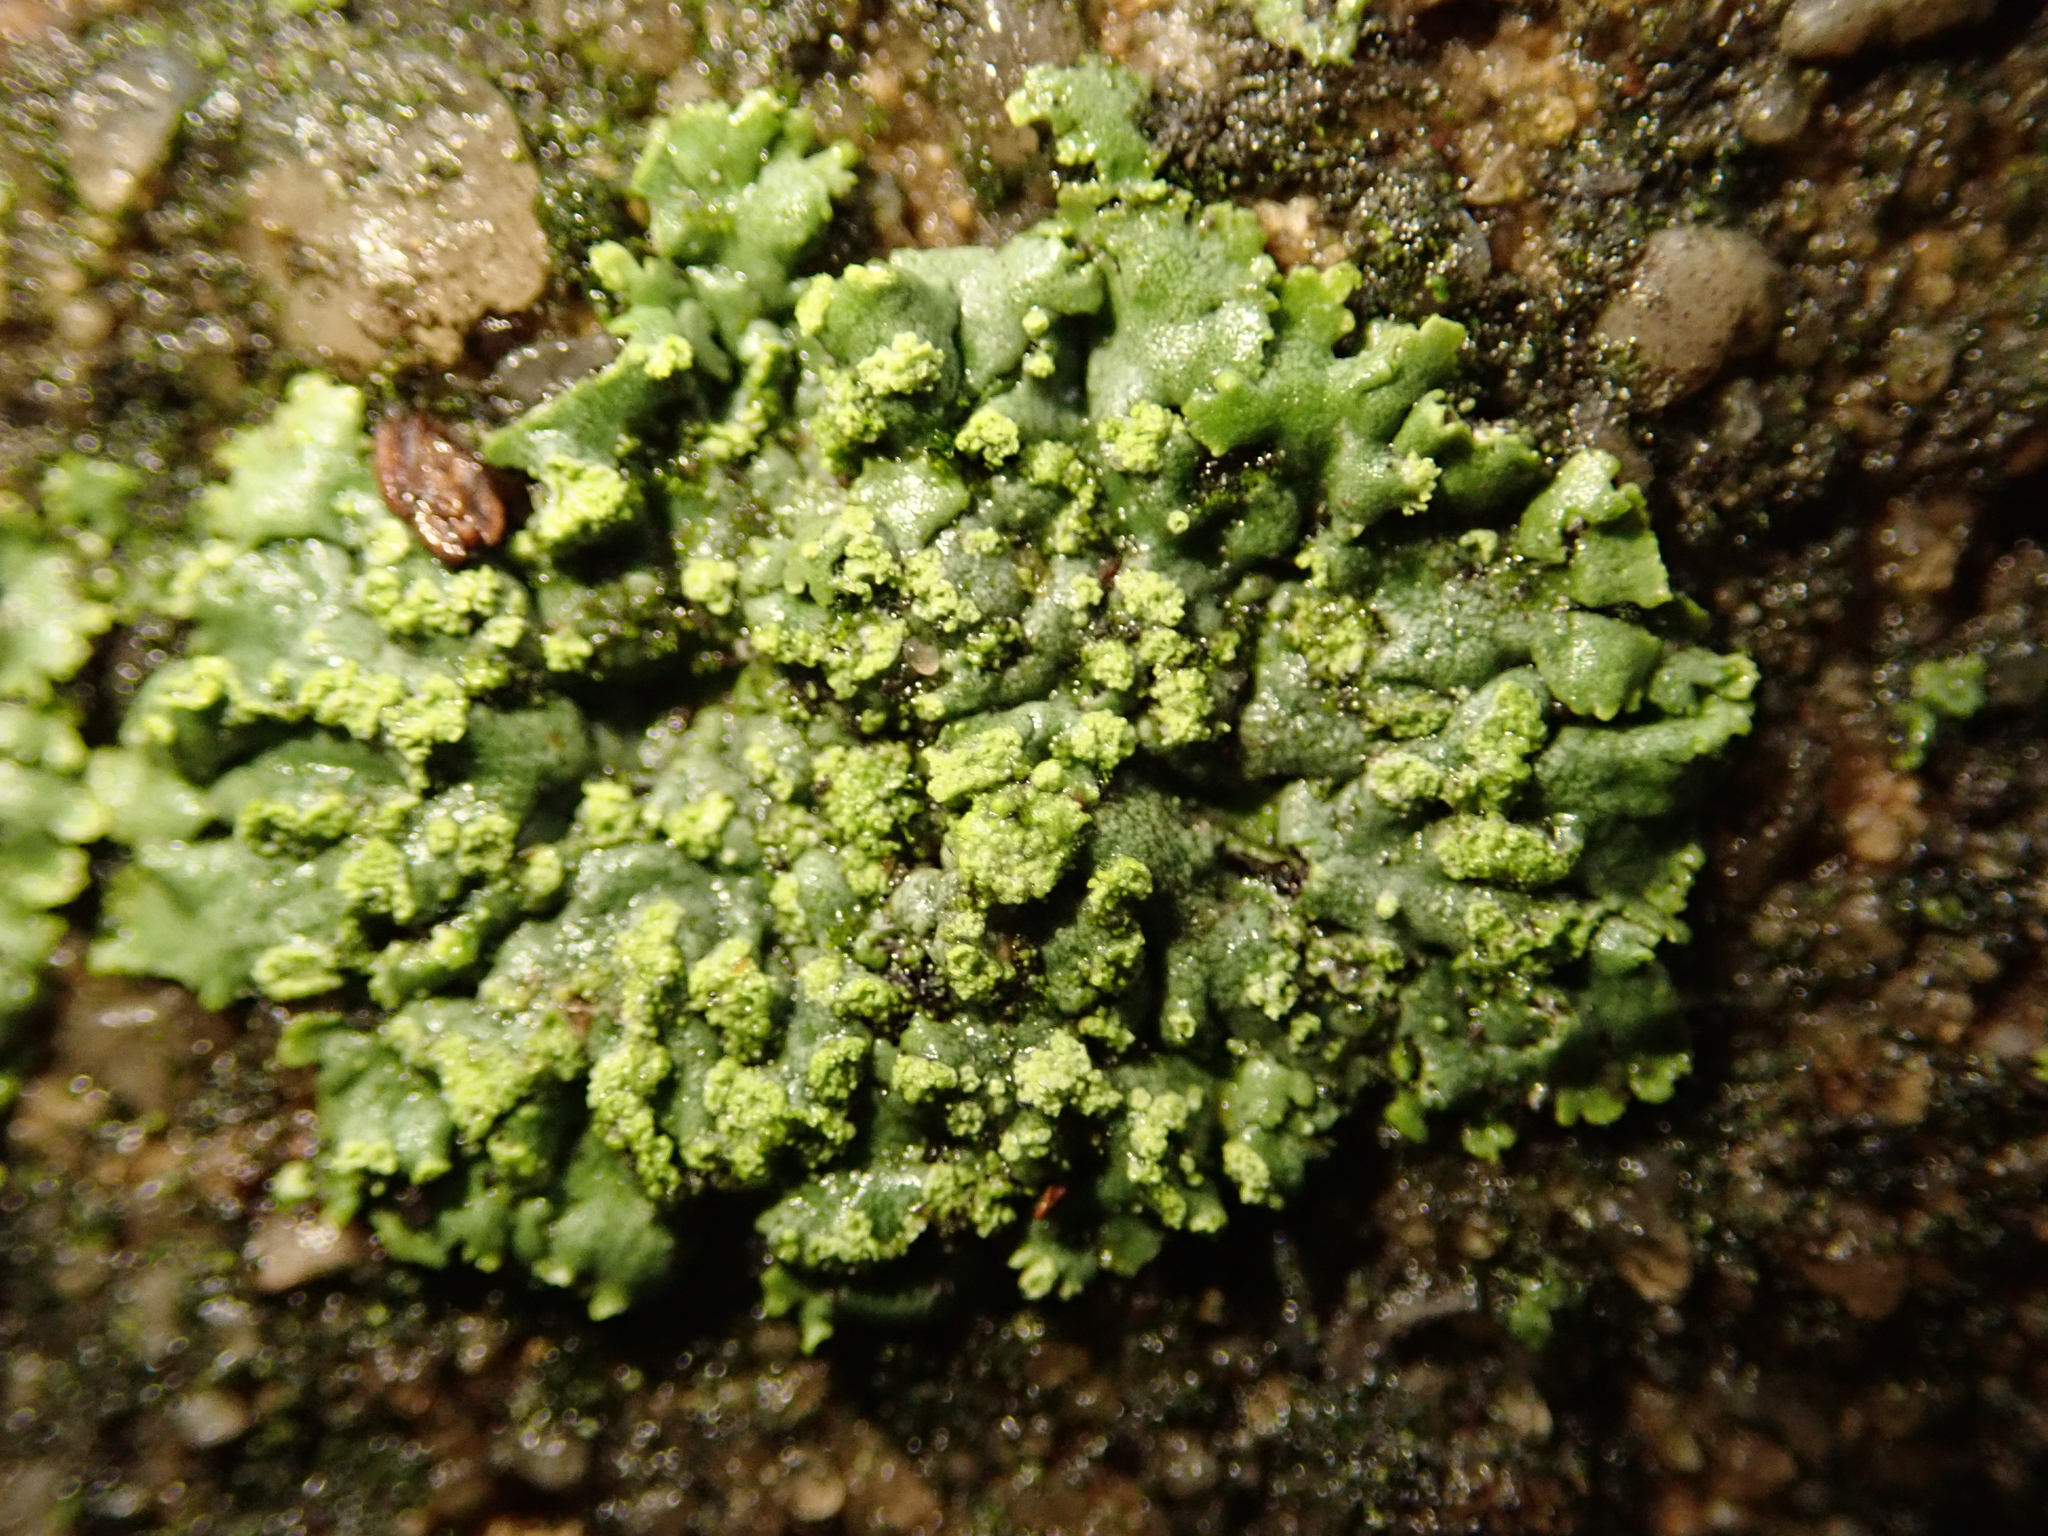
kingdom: Fungi
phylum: Ascomycota
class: Lecanoromycetes
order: Caliciales
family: Physciaceae
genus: Phaeophyscia
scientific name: Phaeophyscia orbicularis
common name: Mealy shadow lichen
